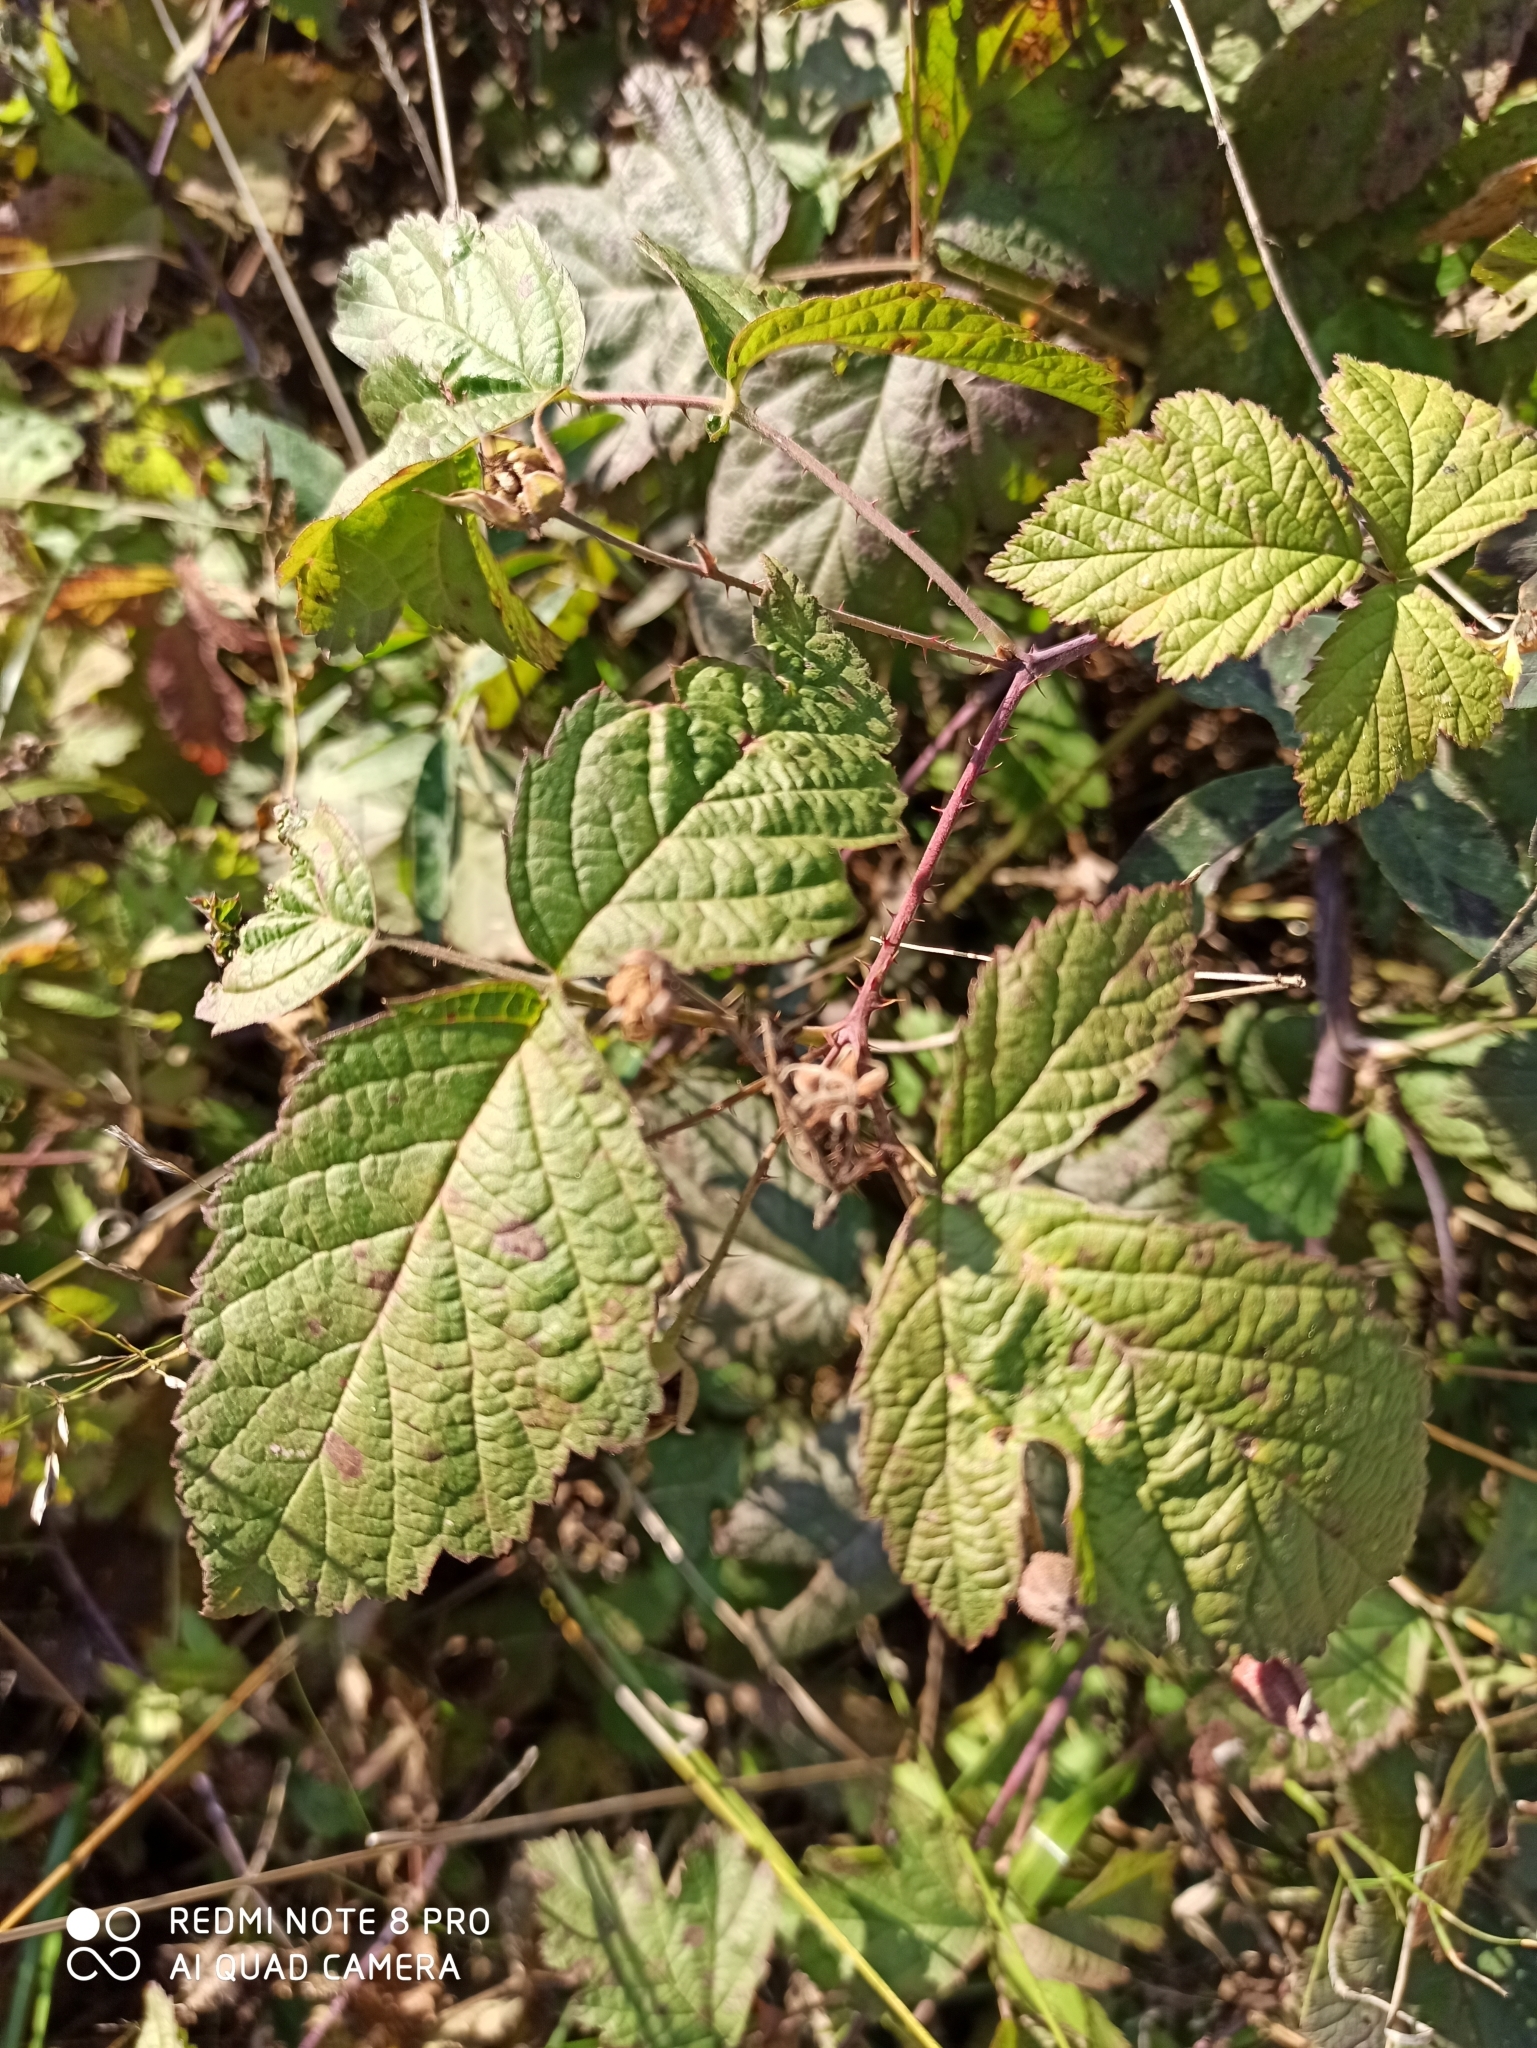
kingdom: Plantae
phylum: Tracheophyta
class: Magnoliopsida
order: Rosales
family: Rosaceae
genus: Rubus
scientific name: Rubus caesius
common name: Dewberry
